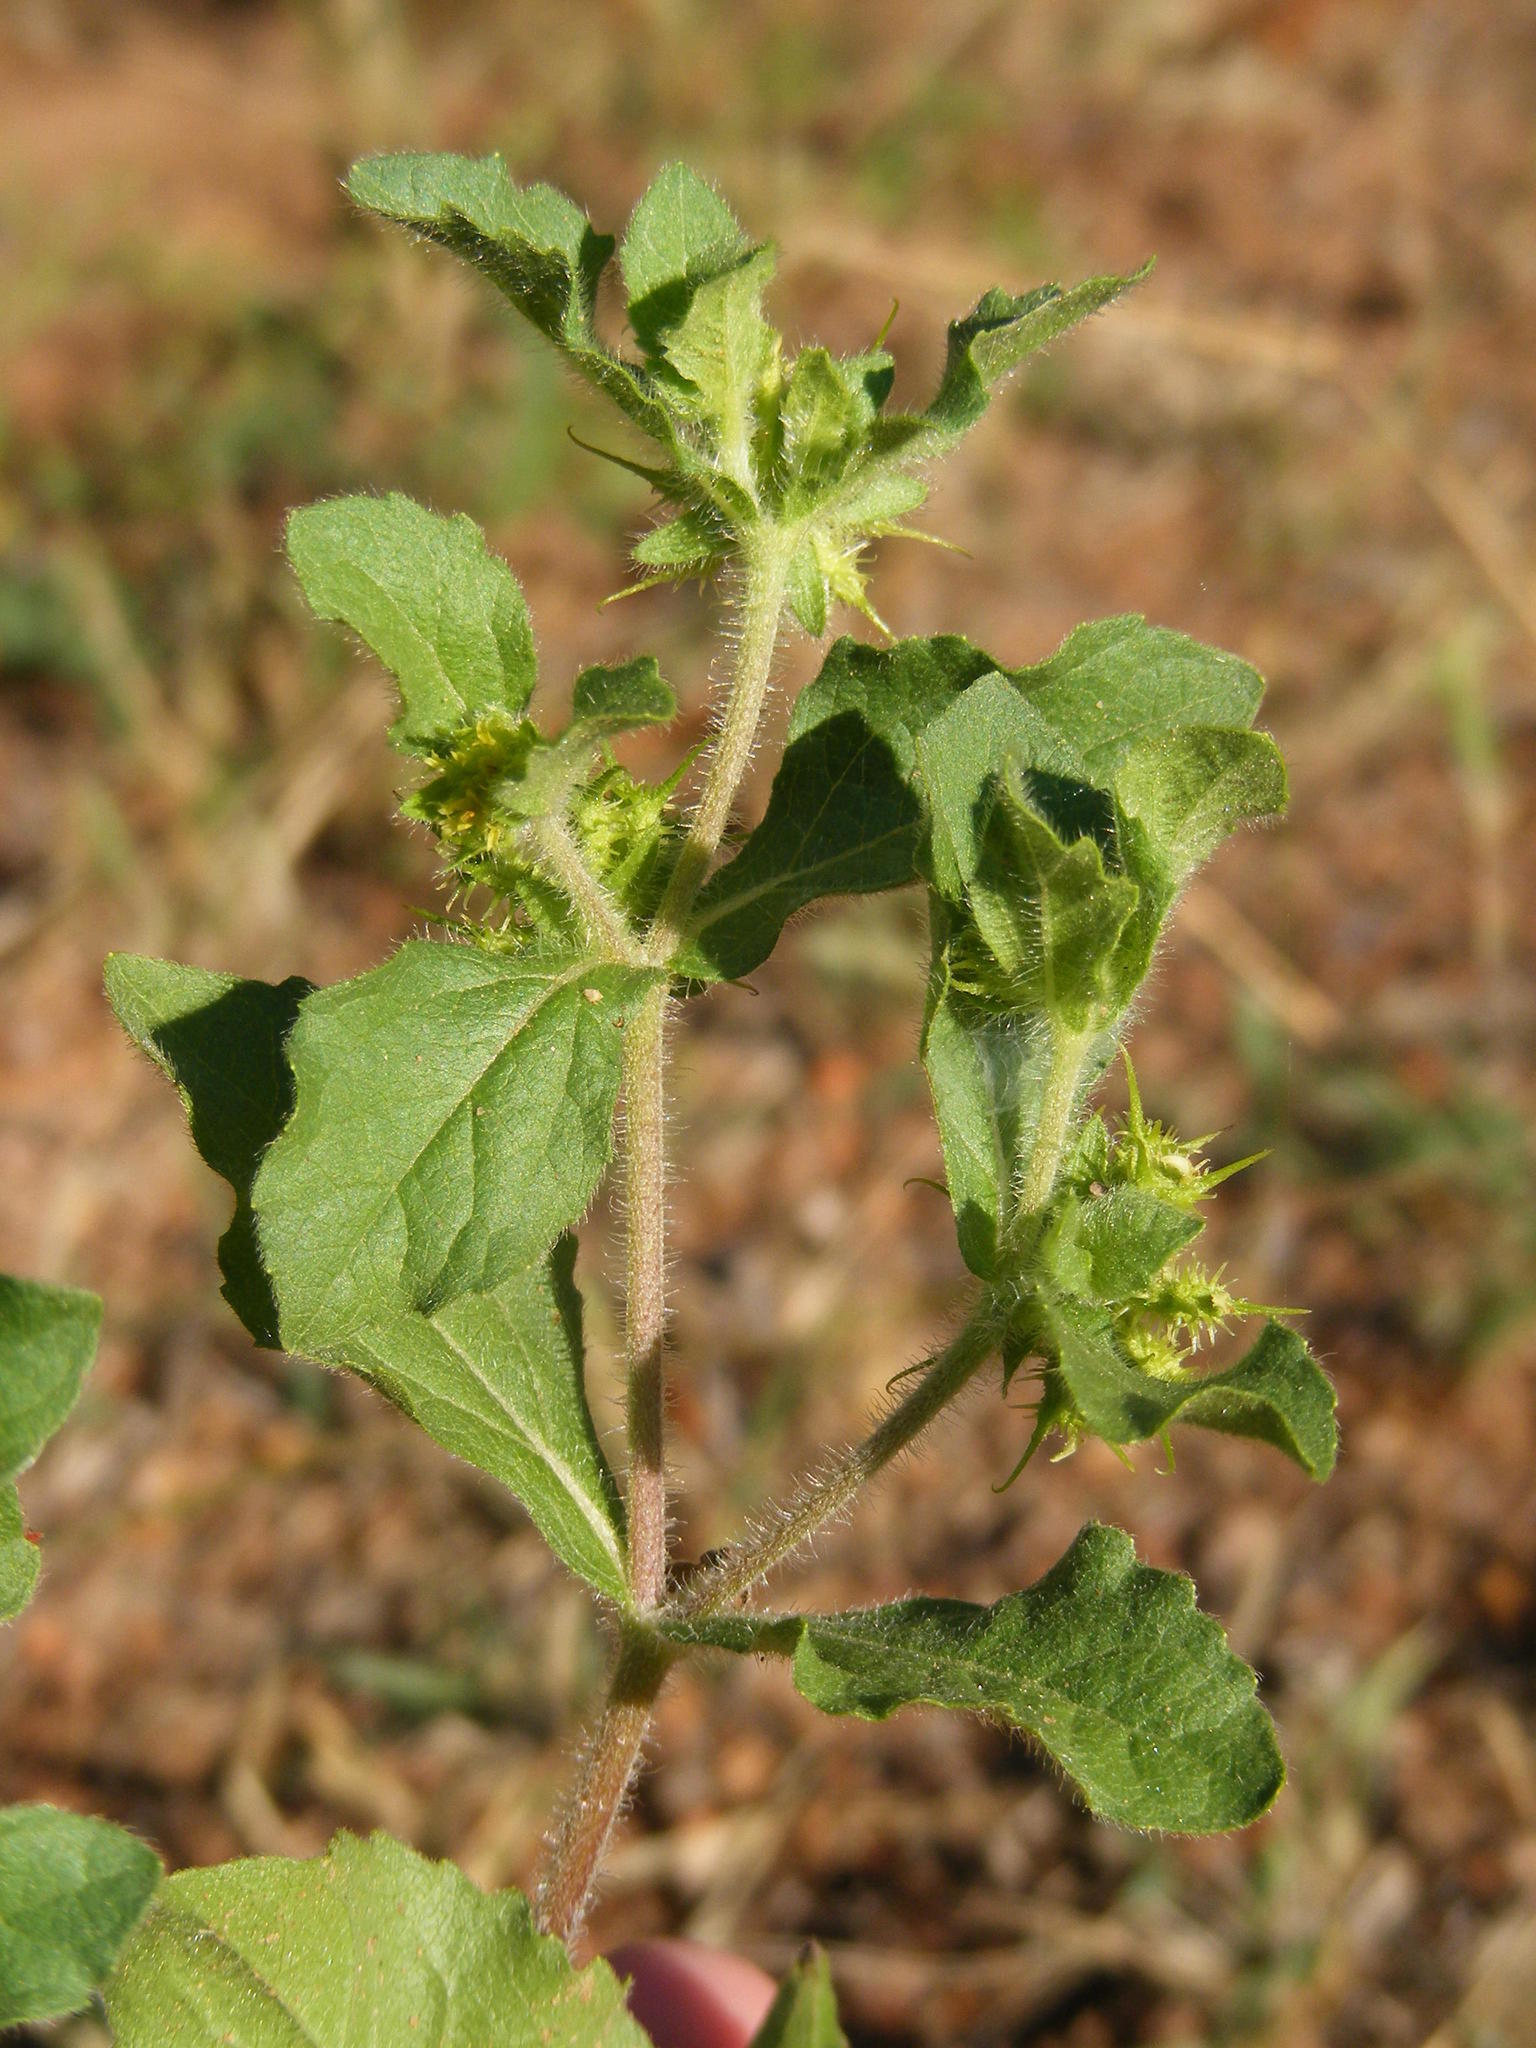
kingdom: Plantae
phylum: Tracheophyta
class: Magnoliopsida
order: Asterales
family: Asteraceae
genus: Acanthospermum
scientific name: Acanthospermum hispidum
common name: Hispid starbur
